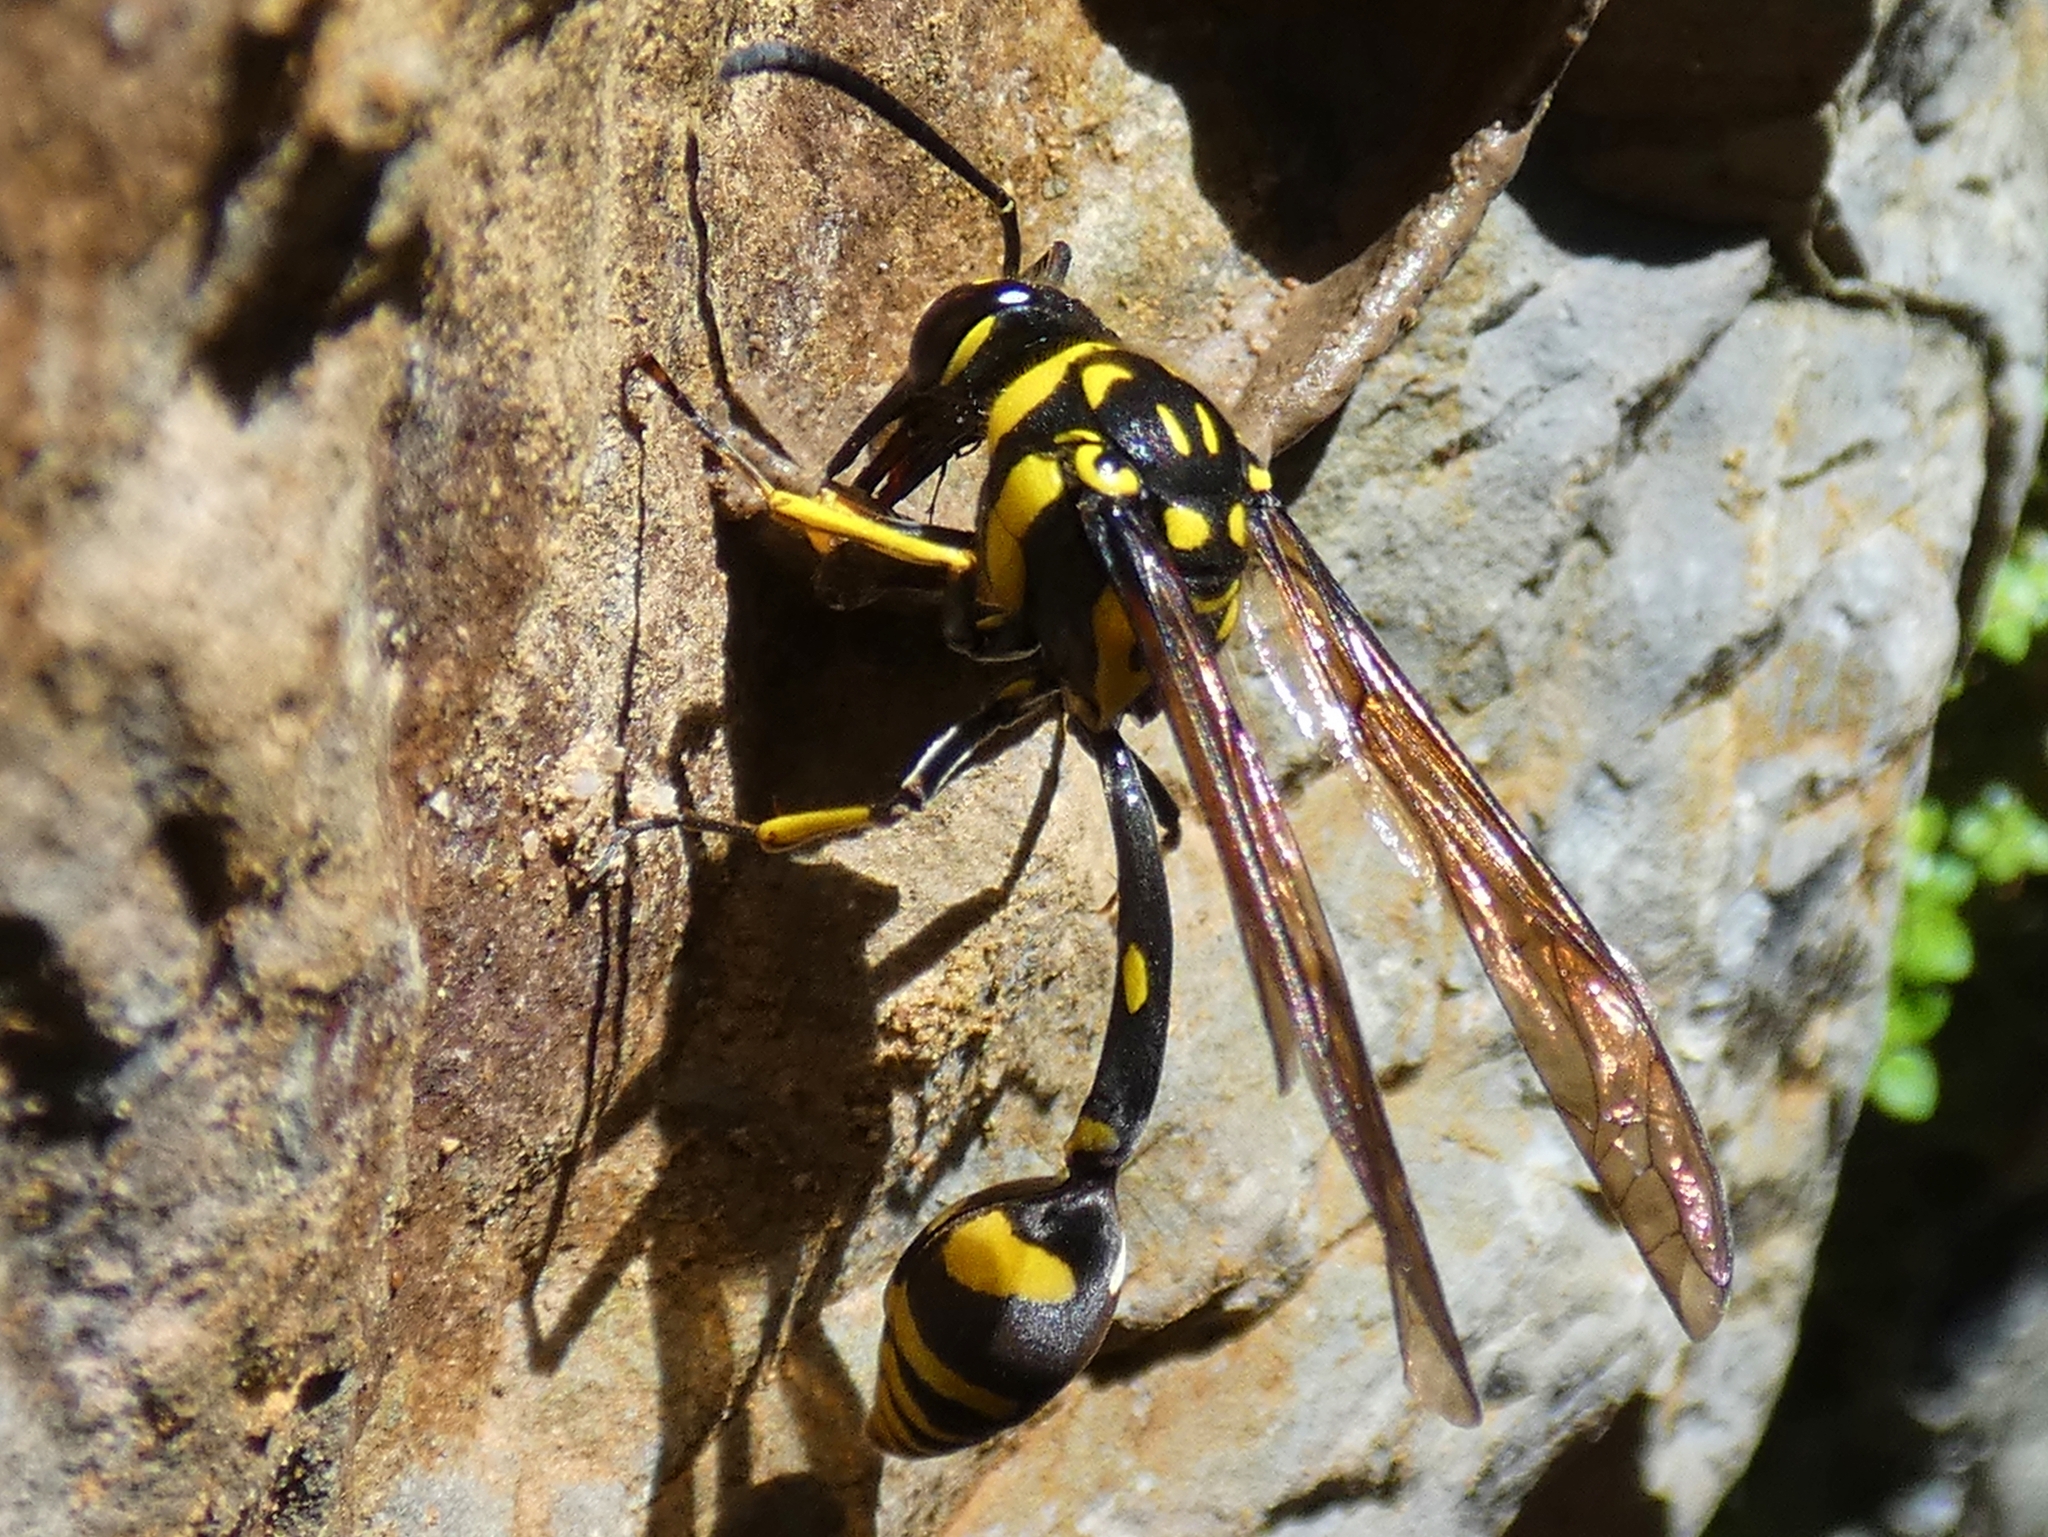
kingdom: Animalia
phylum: Arthropoda
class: Insecta
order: Hymenoptera
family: Eumenidae
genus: Phimenes
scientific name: Phimenes arcuatus
